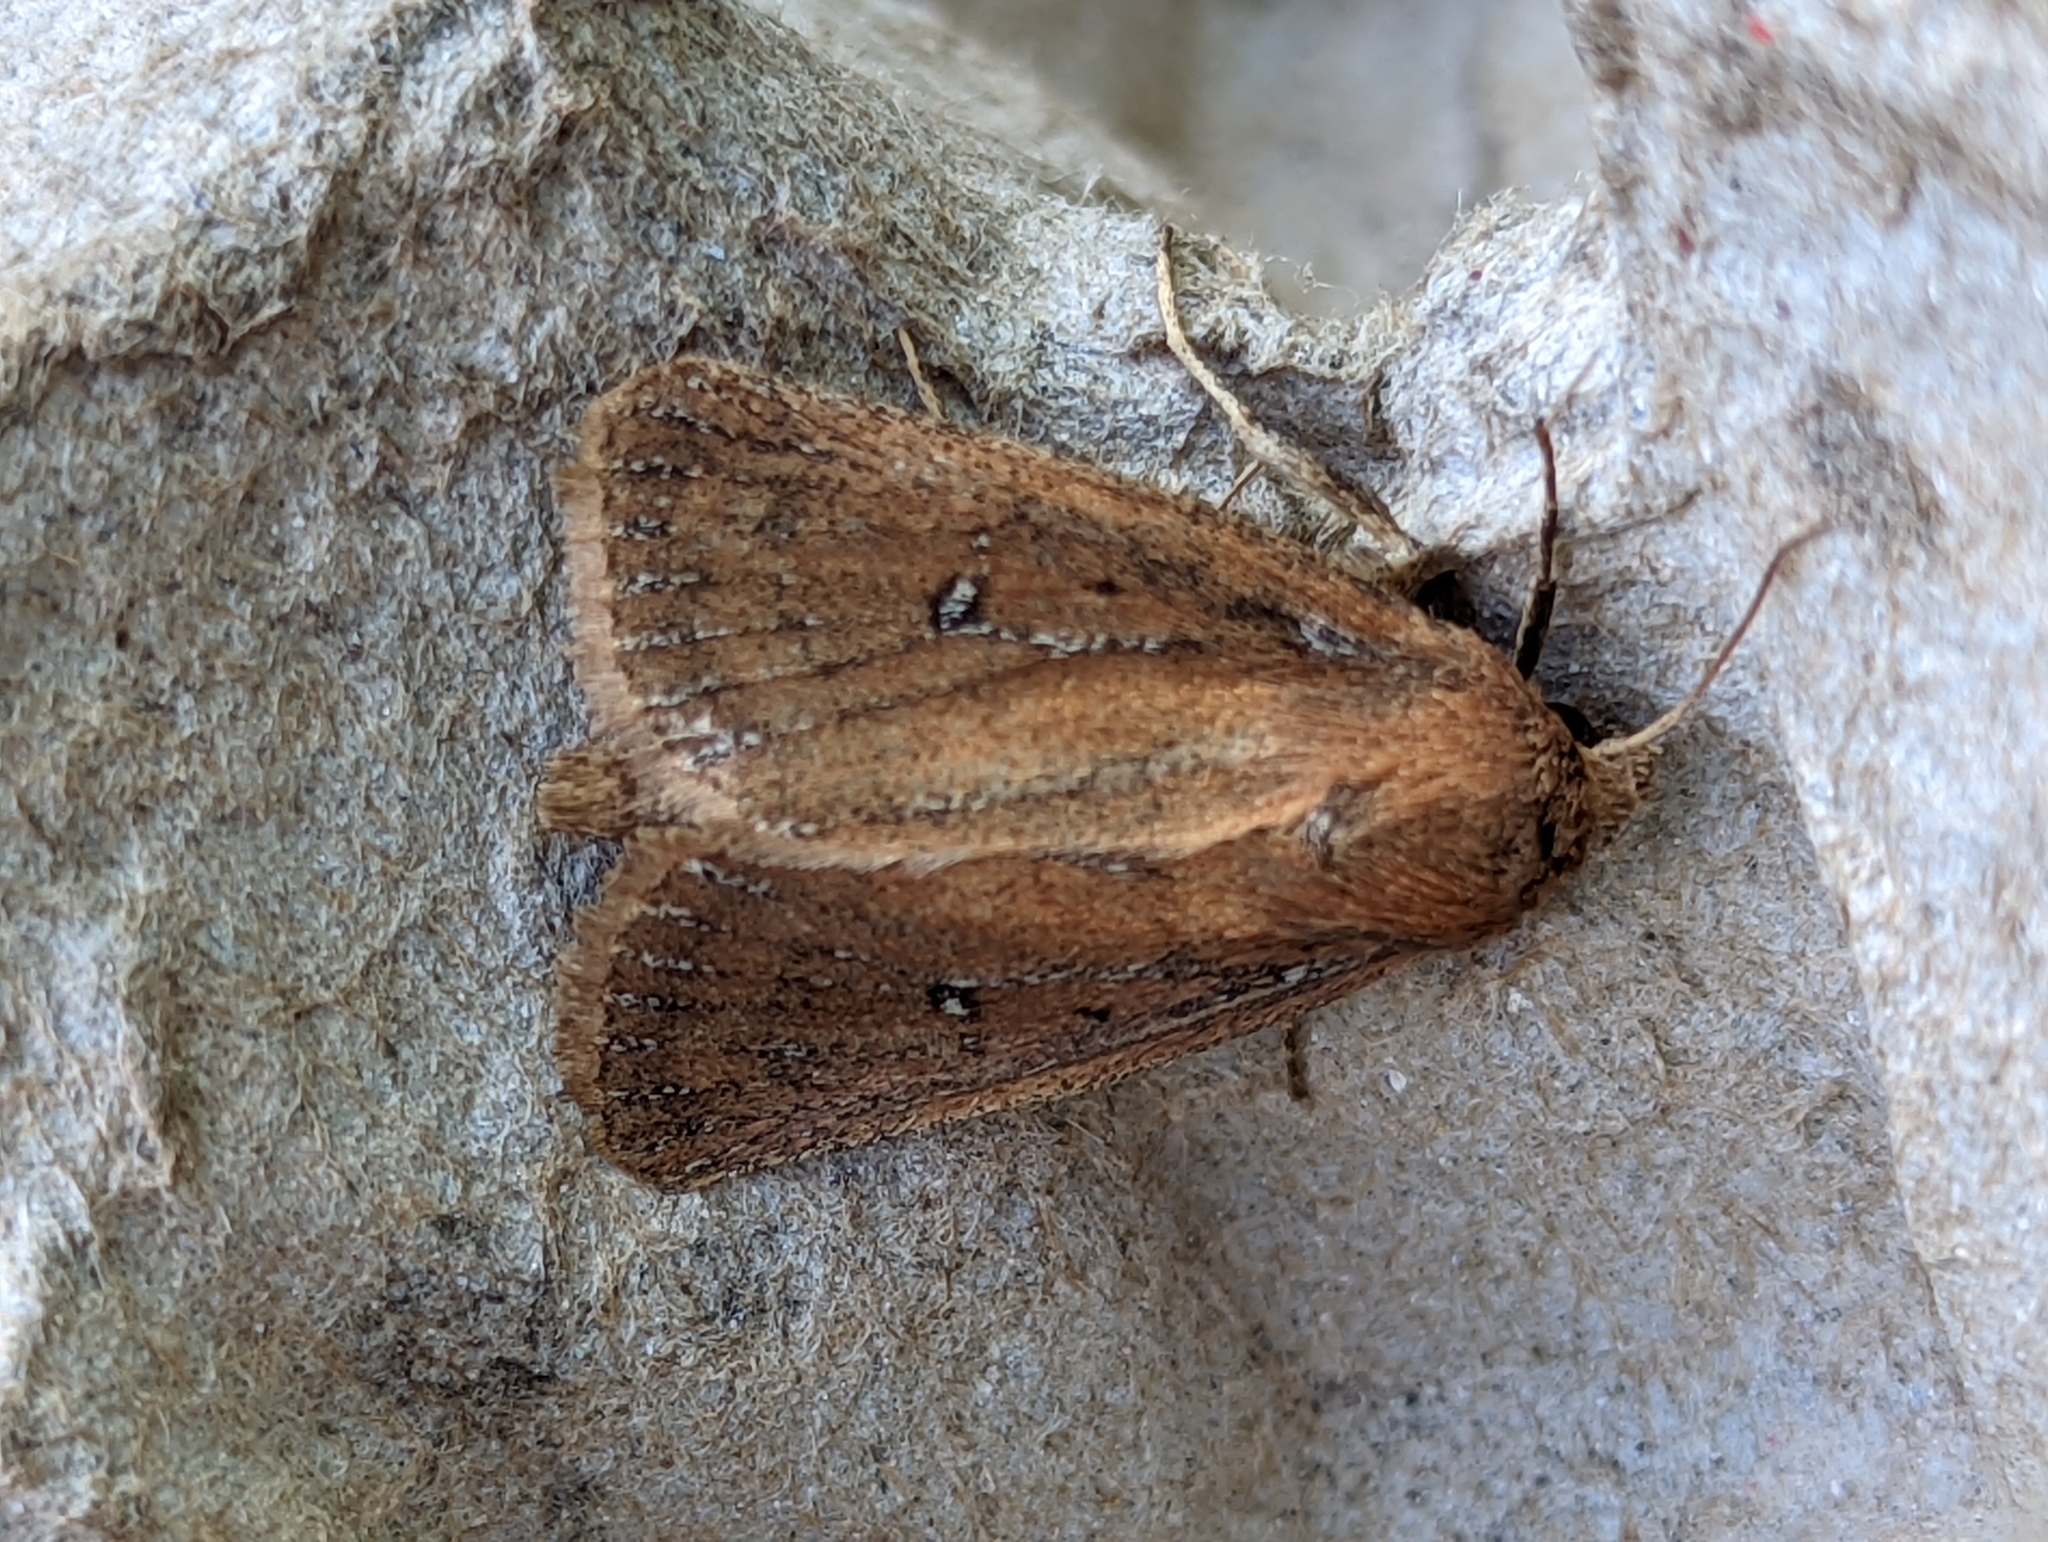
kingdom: Animalia
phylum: Arthropoda
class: Insecta
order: Lepidoptera
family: Noctuidae
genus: Lenisa
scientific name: Lenisa geminipuncta
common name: Twin-spotted wainscot
